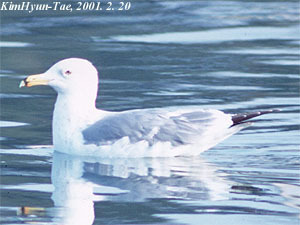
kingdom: Animalia
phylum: Chordata
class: Aves
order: Charadriiformes
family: Laridae
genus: Larus
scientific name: Larus vegae
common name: Vega gull
